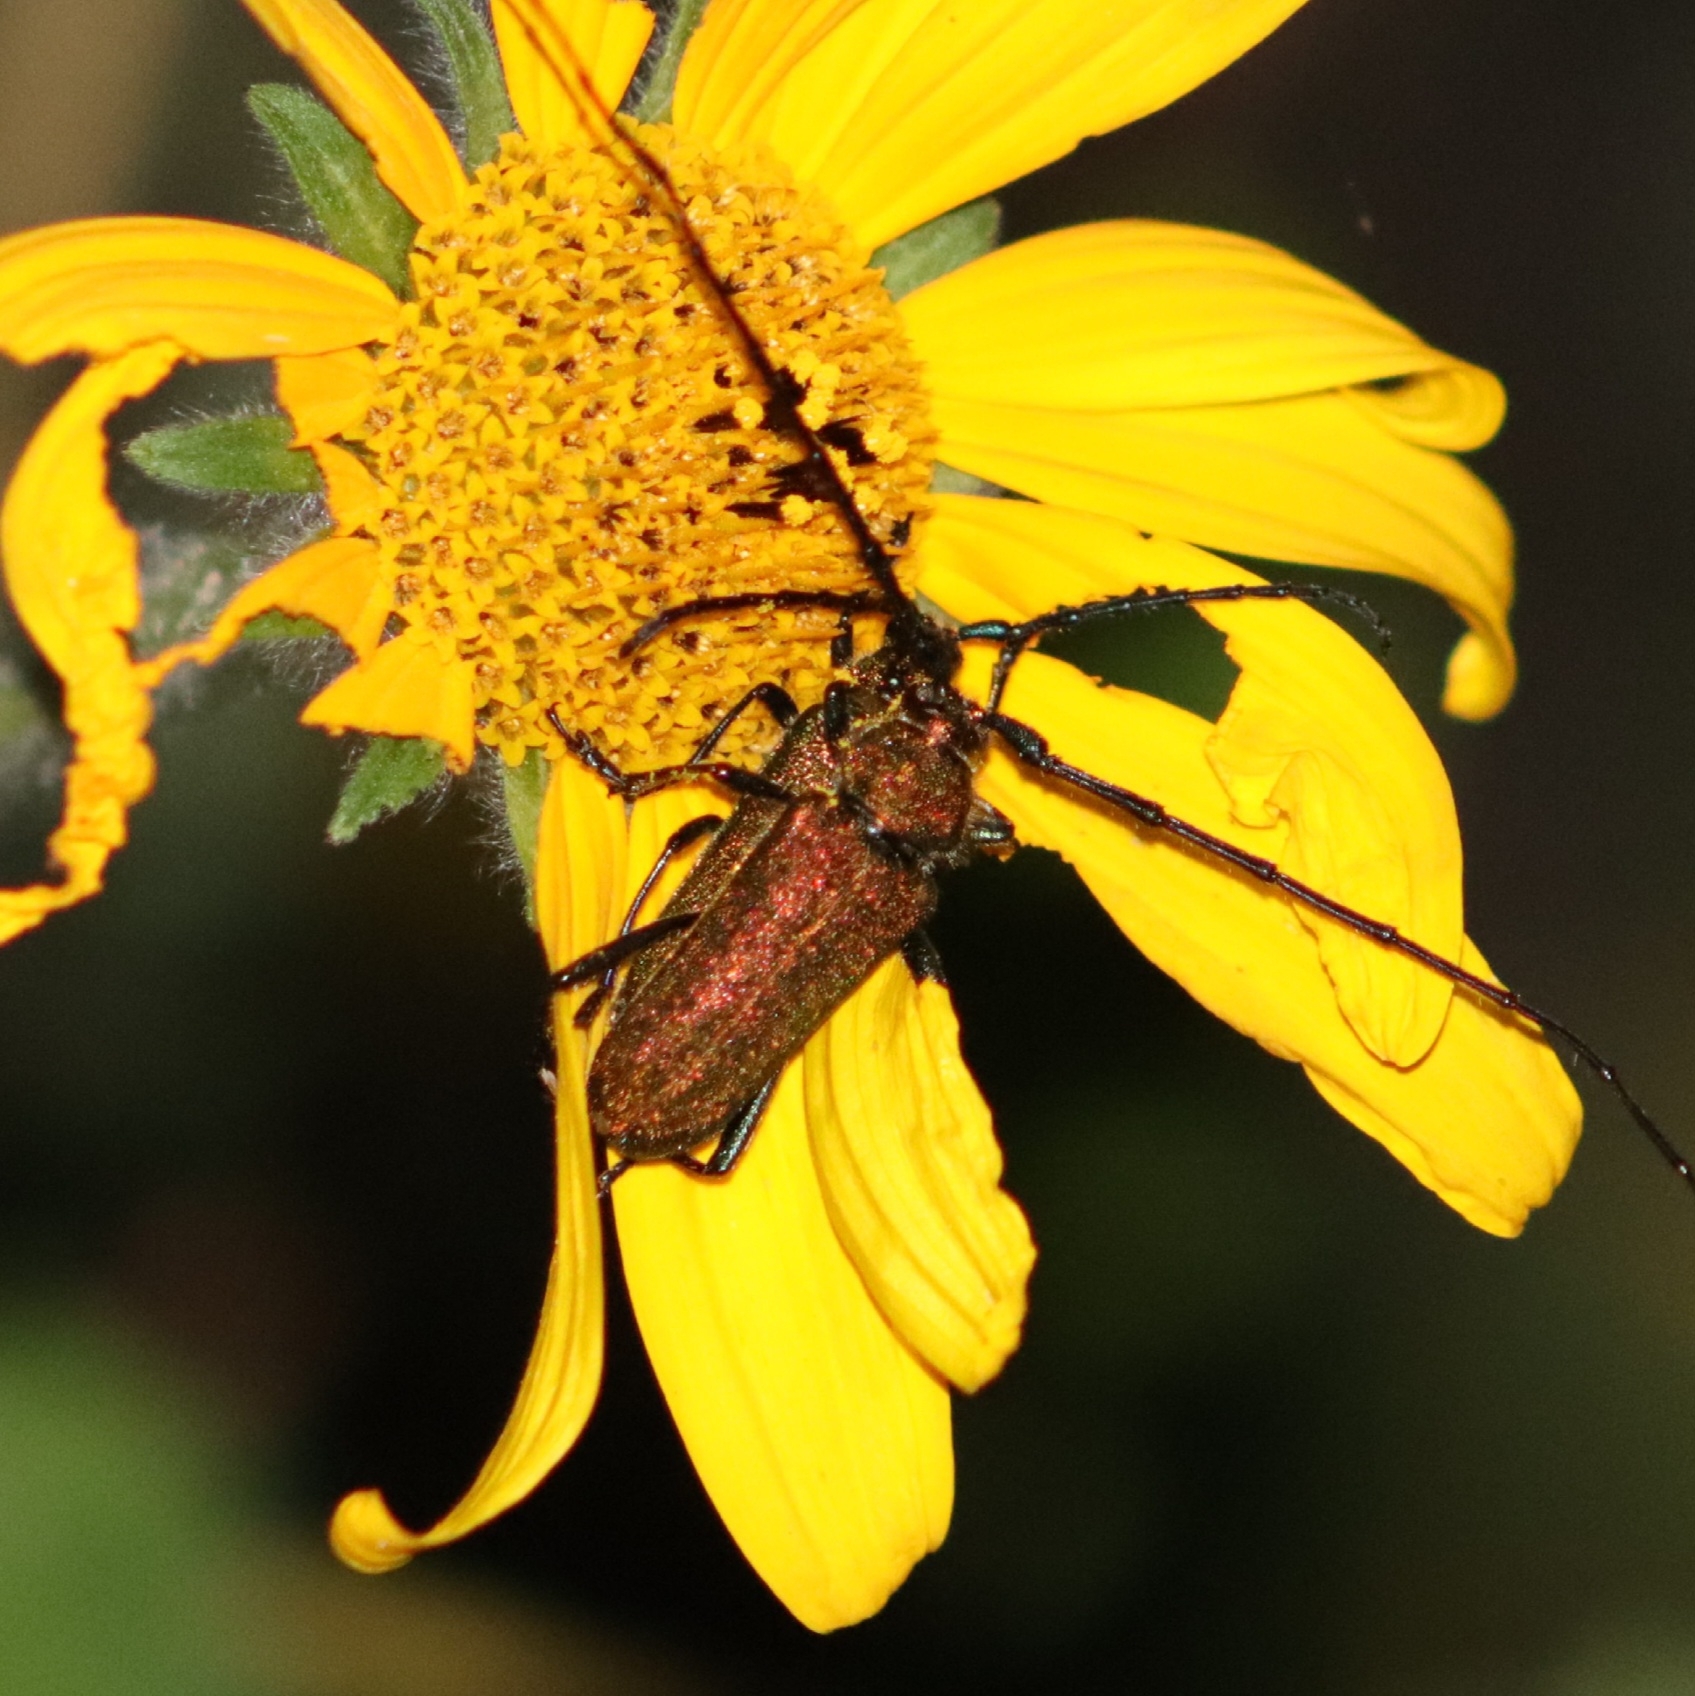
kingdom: Animalia
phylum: Arthropoda
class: Insecta
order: Coleoptera
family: Cerambycidae
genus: Deltaspis
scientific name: Deltaspis cyanipes
